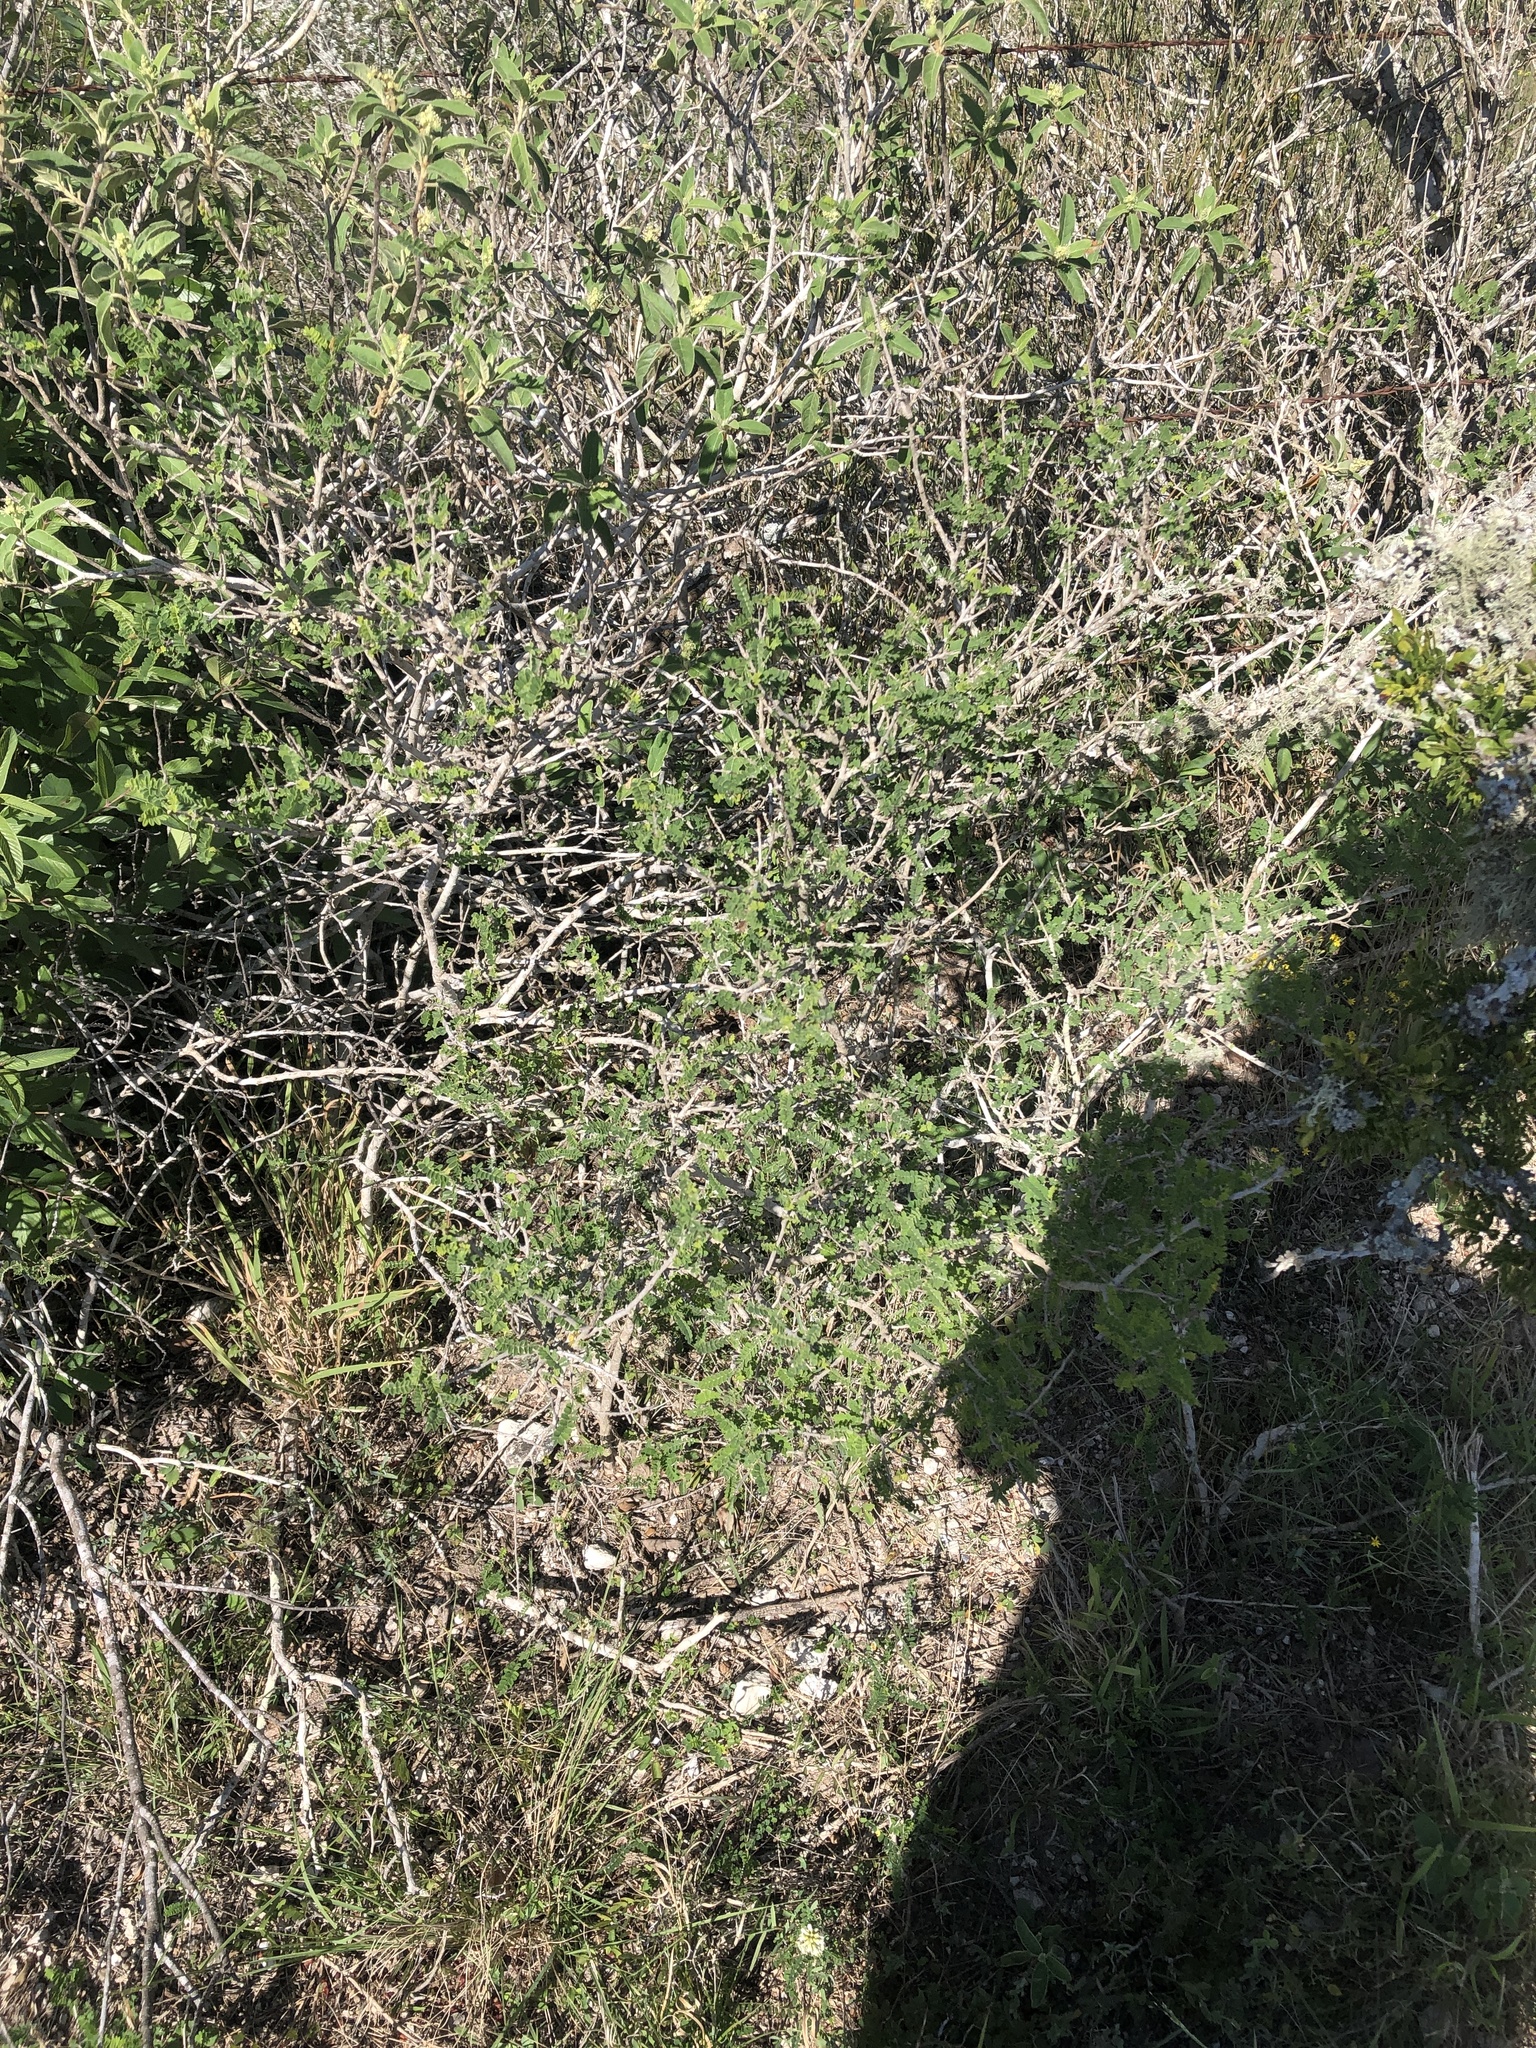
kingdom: Plantae
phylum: Tracheophyta
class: Magnoliopsida
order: Fabales
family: Fabaceae
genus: Eysenhardtia
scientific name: Eysenhardtia texana
